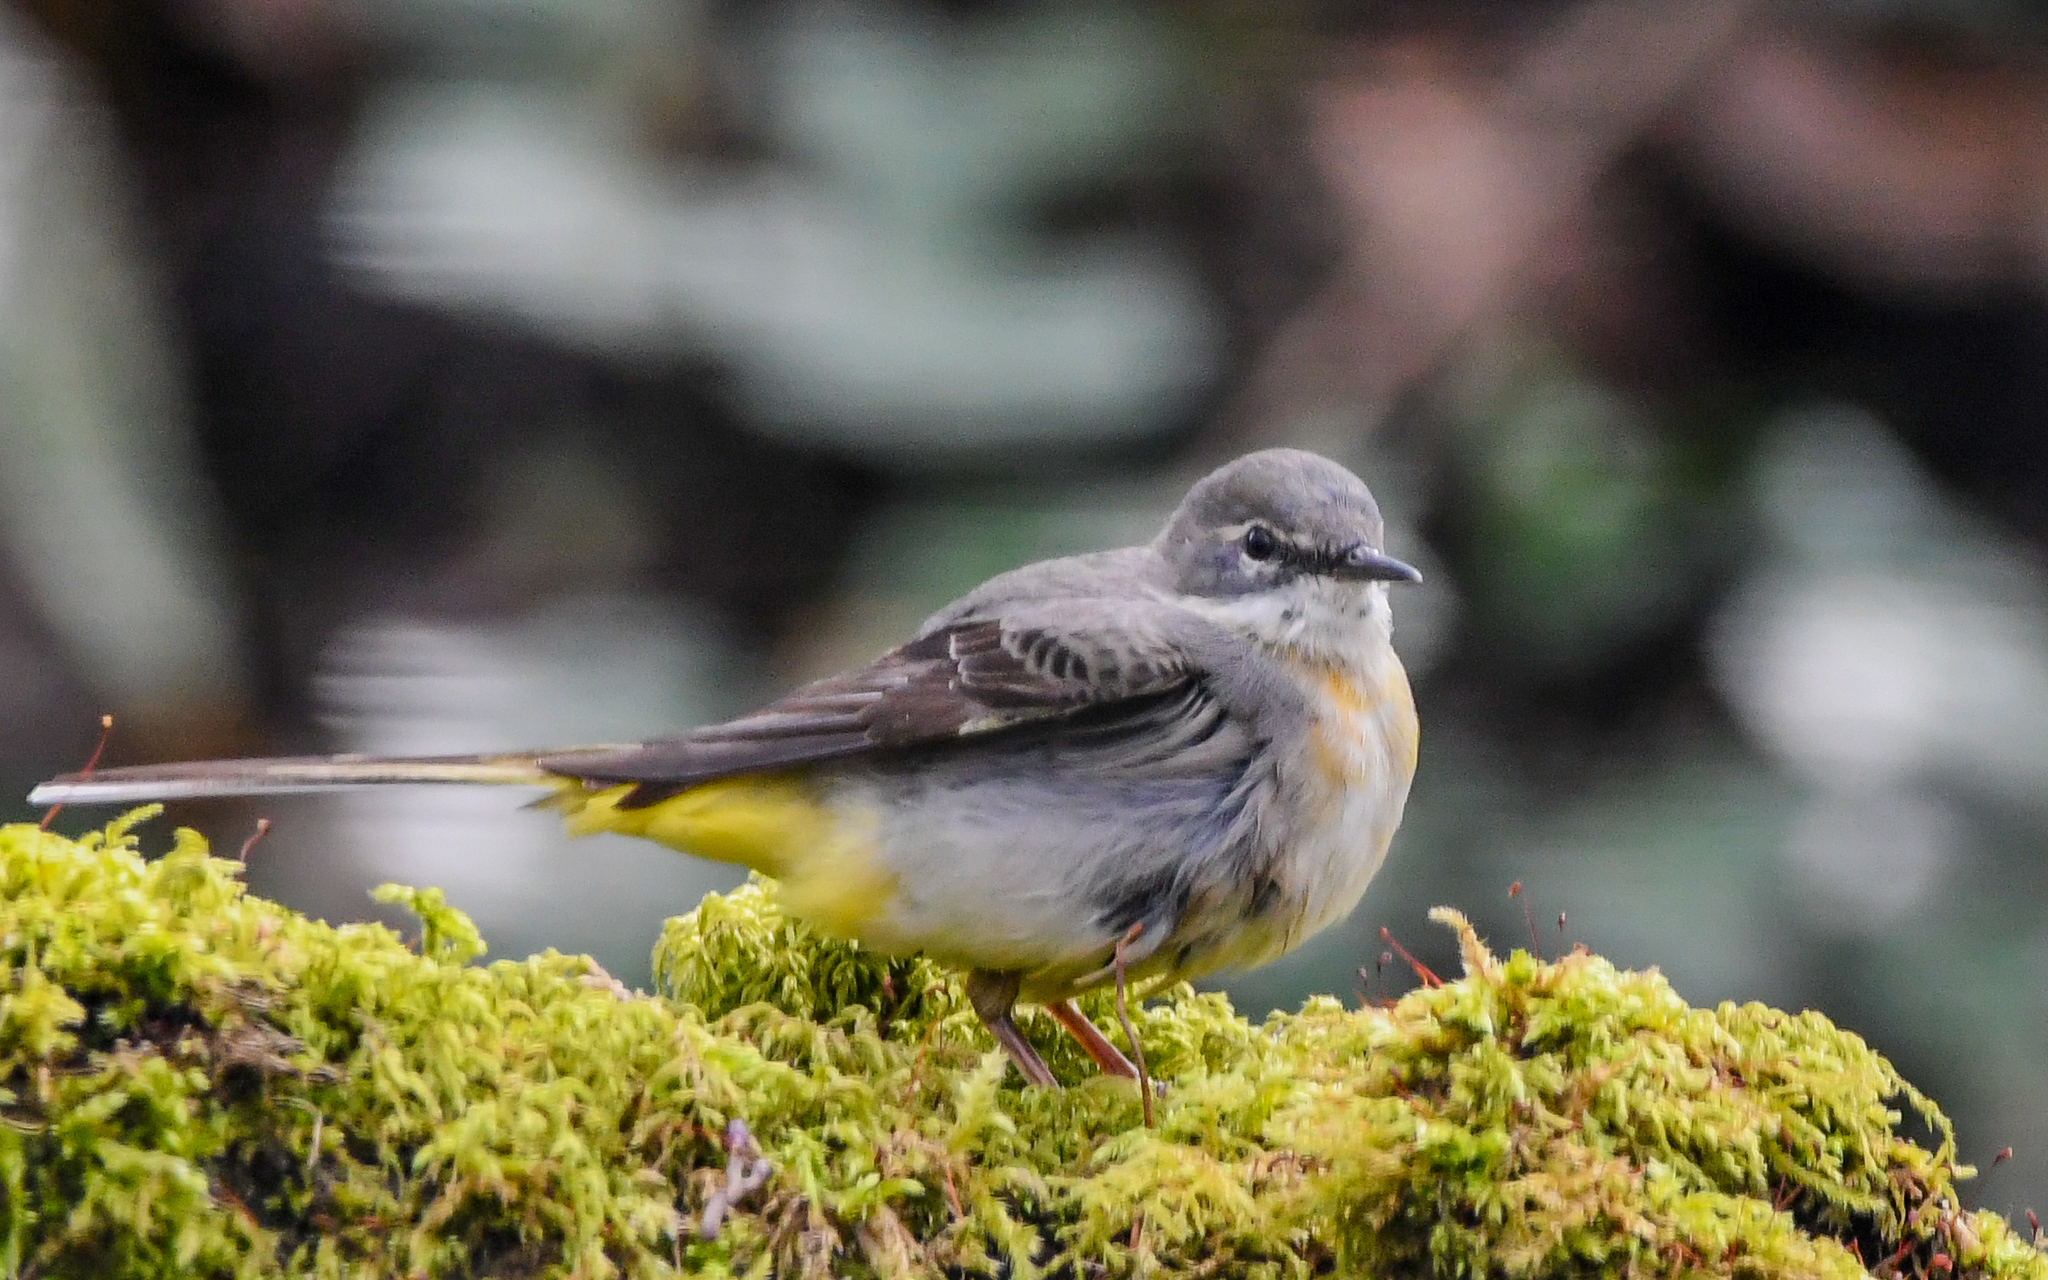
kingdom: Animalia
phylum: Chordata
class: Aves
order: Passeriformes
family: Motacillidae
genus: Motacilla
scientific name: Motacilla cinerea
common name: Grey wagtail
